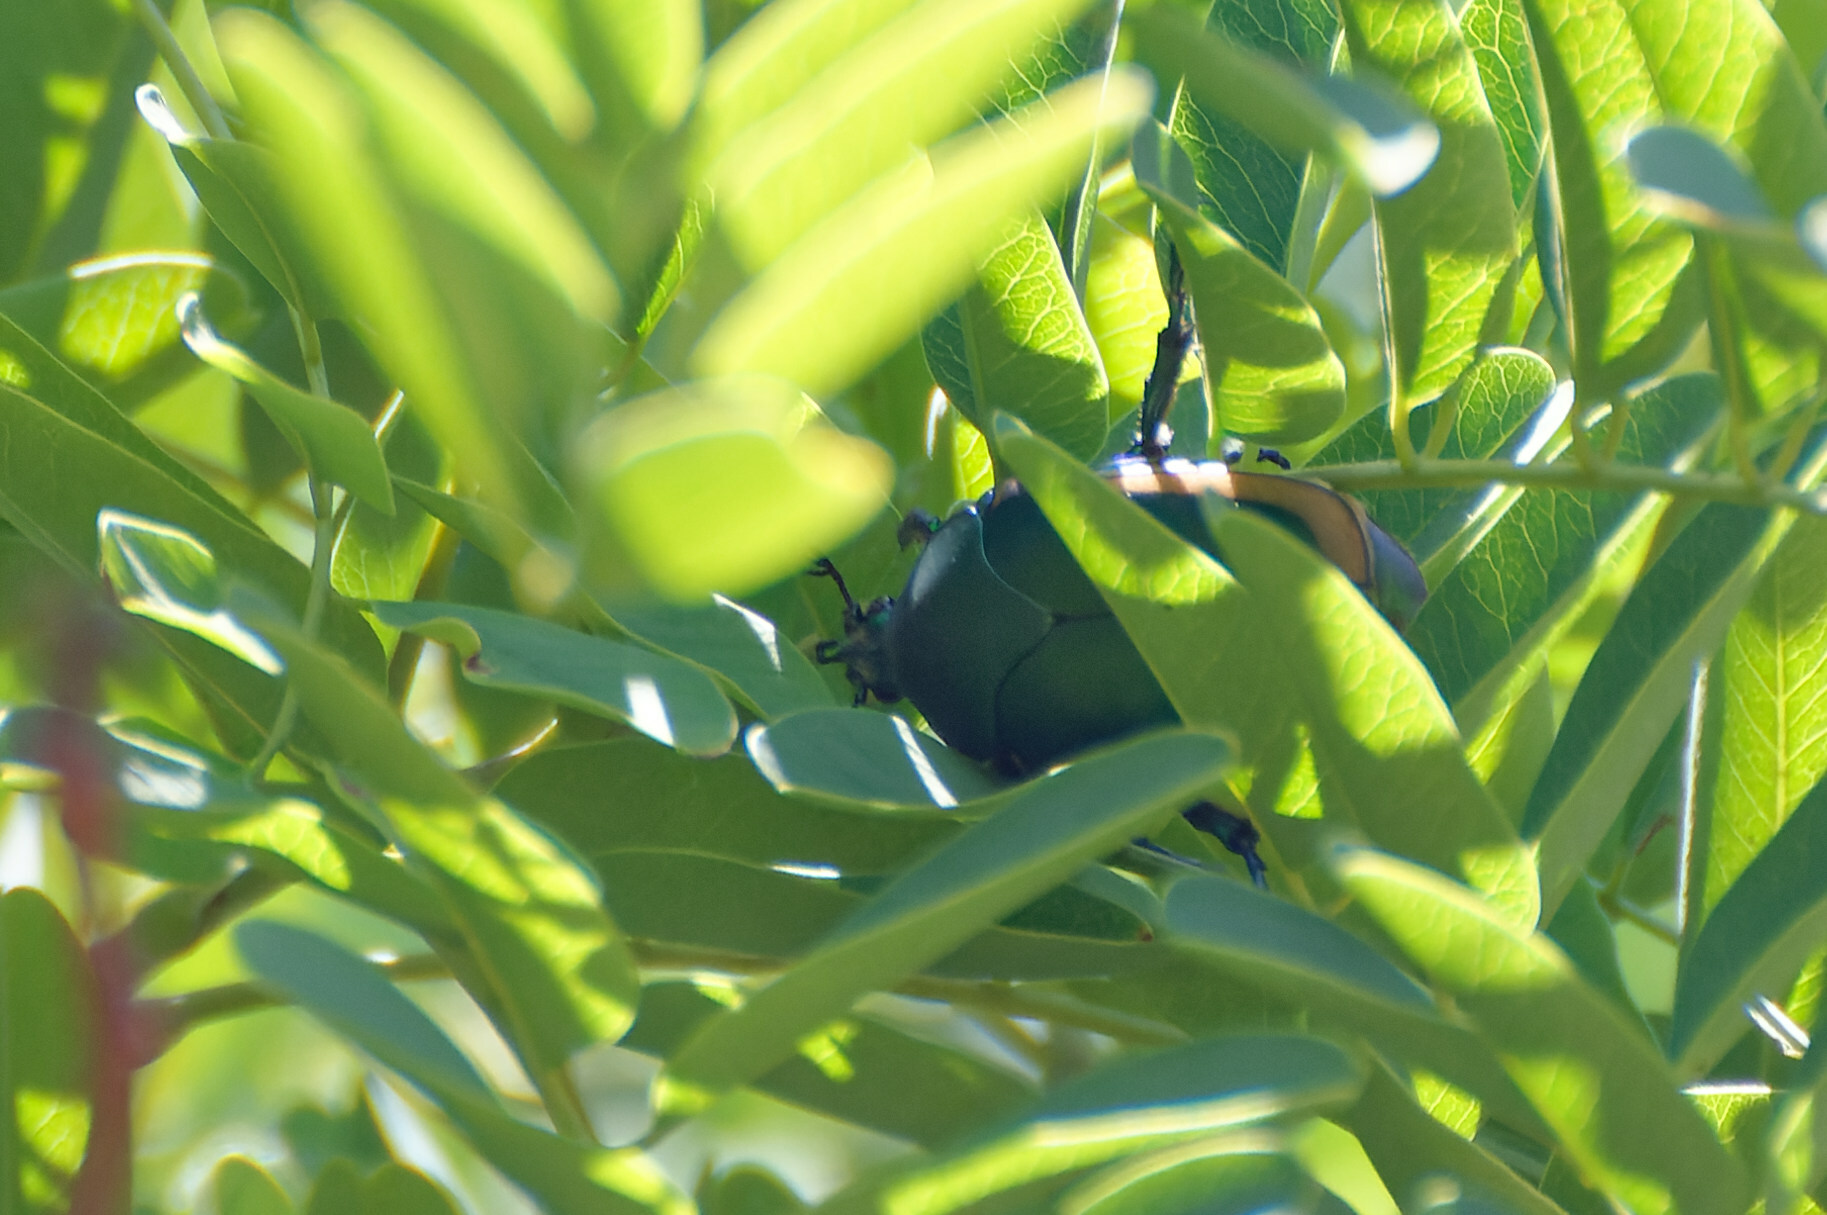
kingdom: Animalia
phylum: Arthropoda
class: Insecta
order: Coleoptera
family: Scarabaeidae
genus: Cotinis
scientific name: Cotinis mutabilis
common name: Figeater beetle
